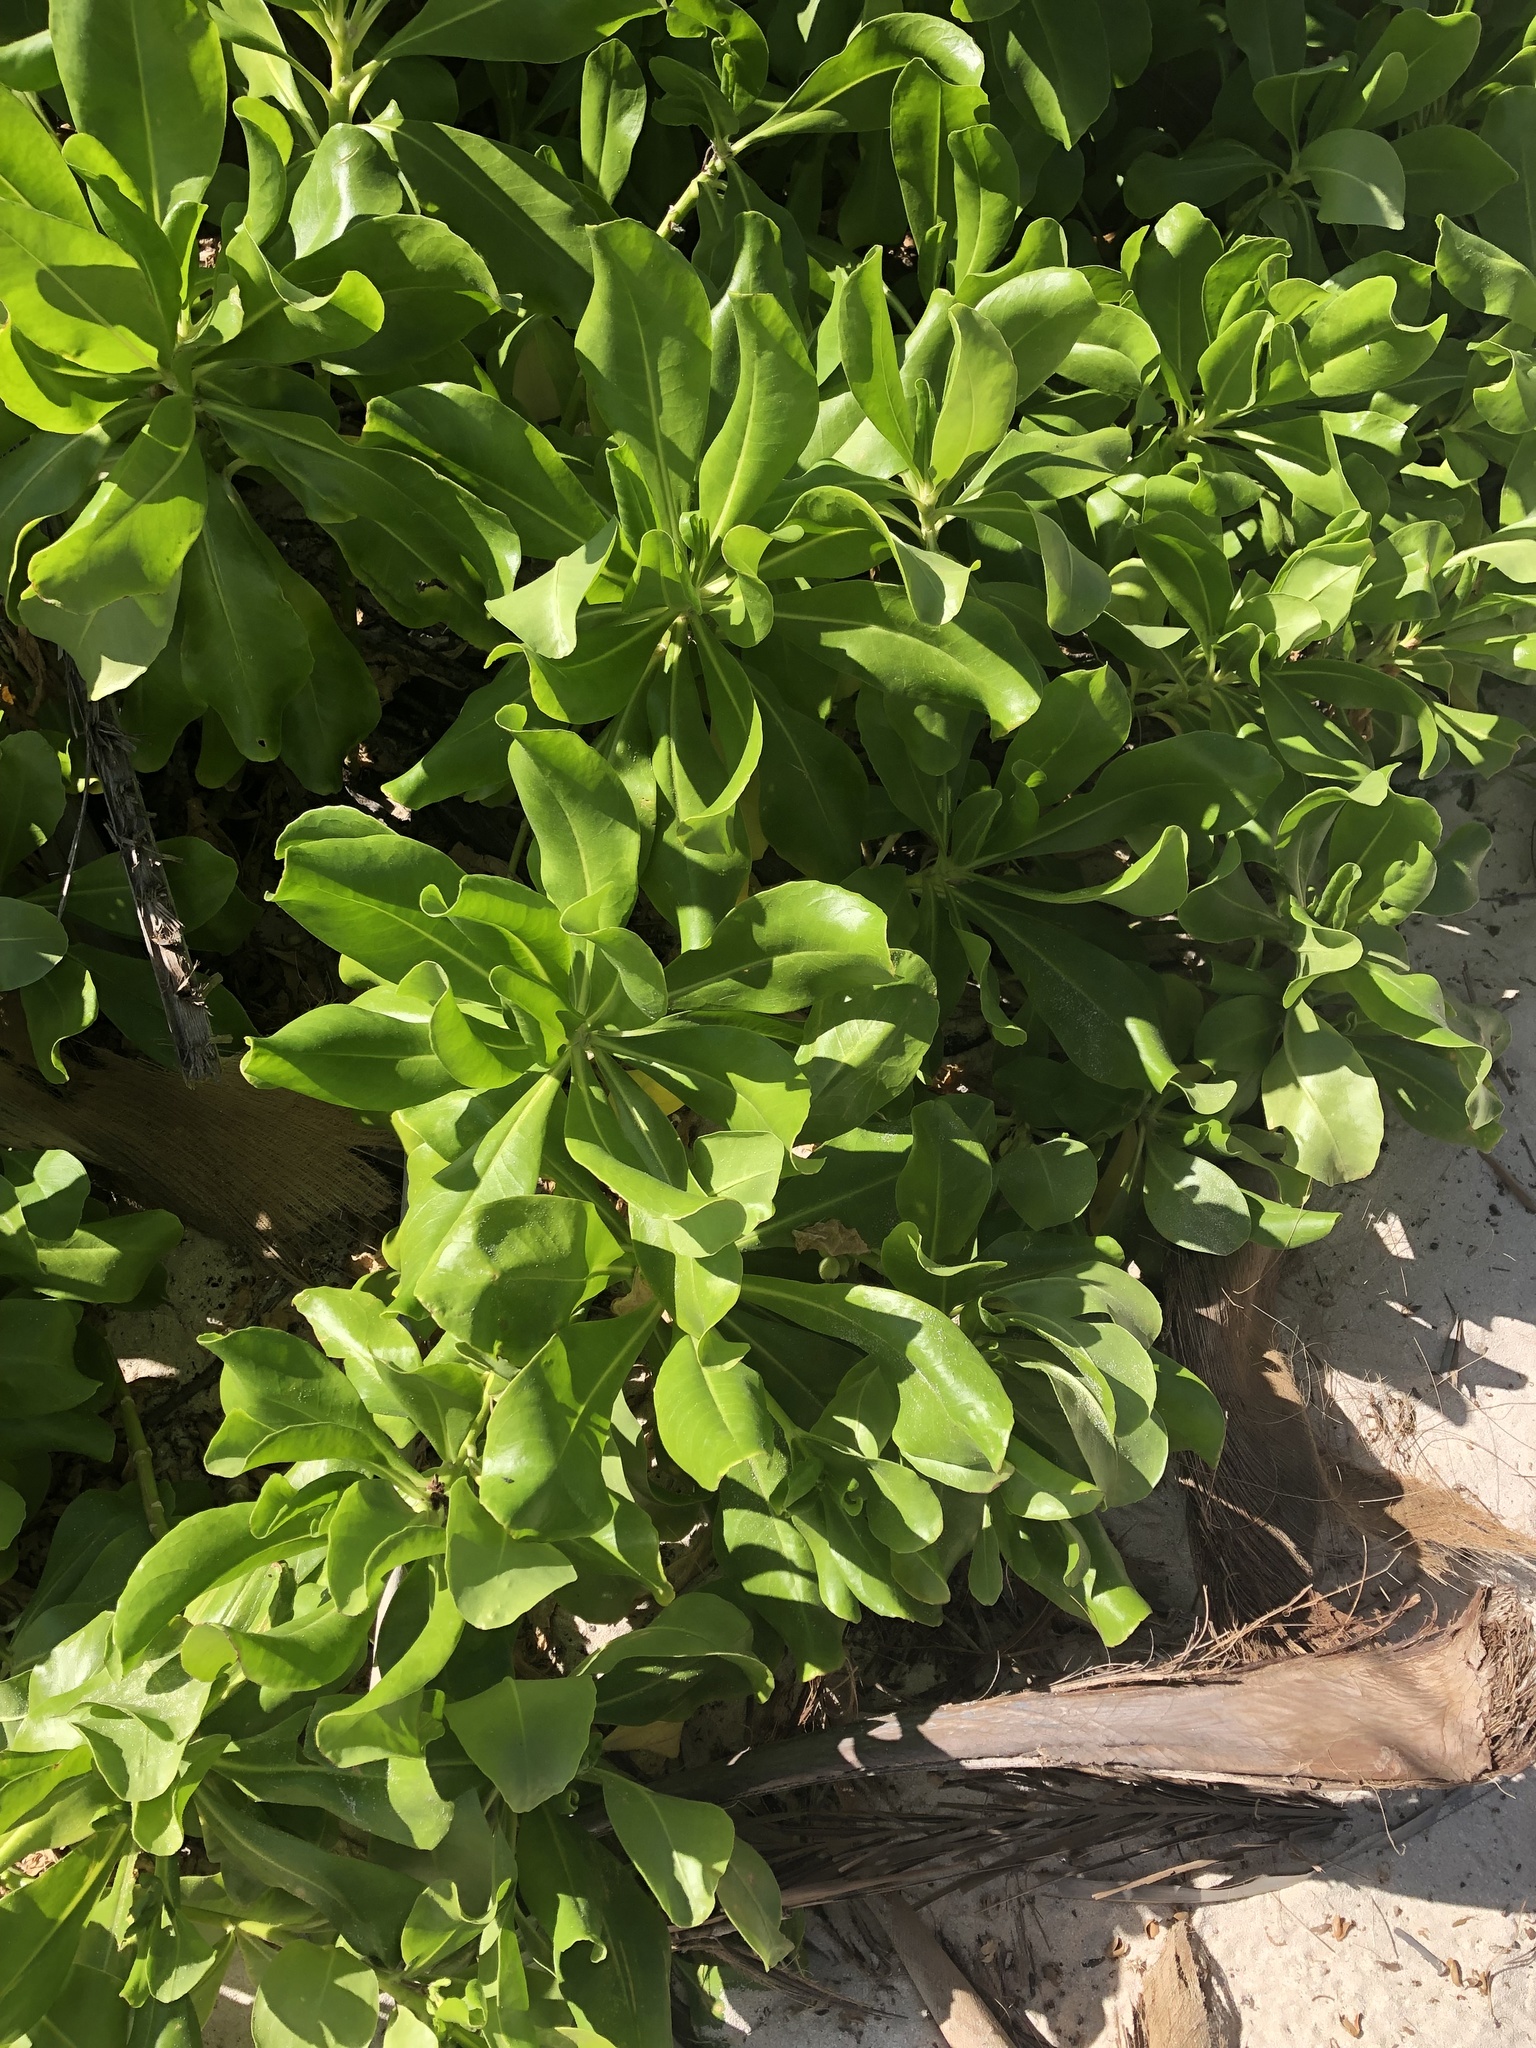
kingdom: Plantae
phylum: Tracheophyta
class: Magnoliopsida
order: Asterales
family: Goodeniaceae
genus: Scaevola
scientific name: Scaevola taccada
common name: Sea lettucetree
